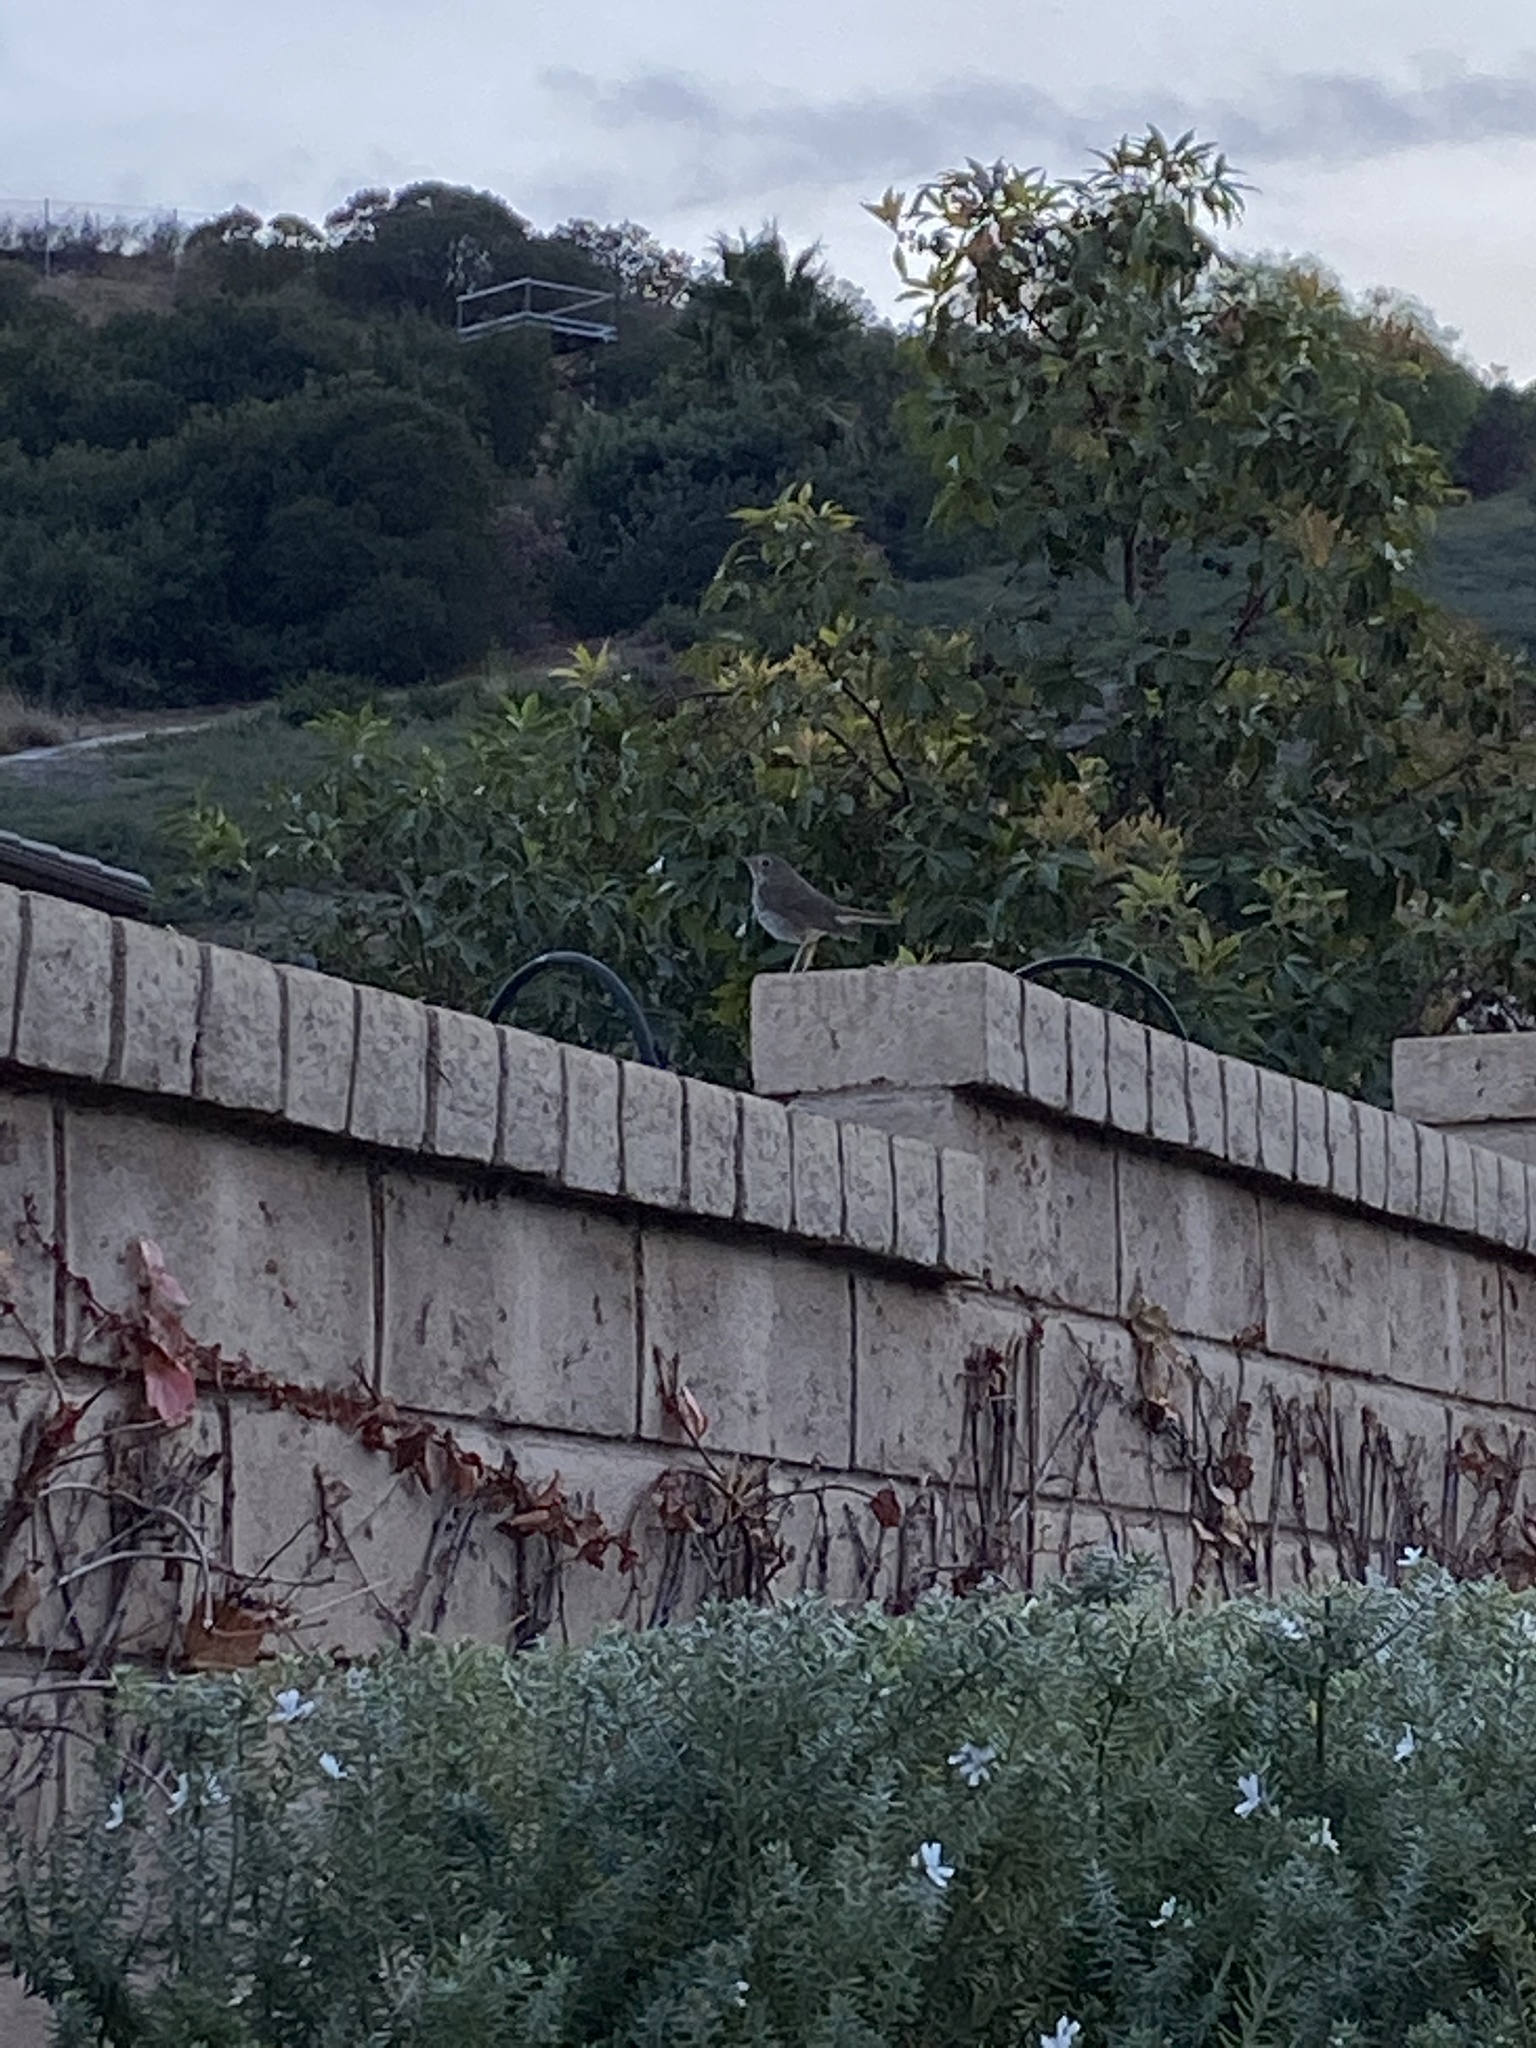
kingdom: Animalia
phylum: Chordata
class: Aves
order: Passeriformes
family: Turdidae
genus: Catharus
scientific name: Catharus guttatus
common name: Hermit thrush
